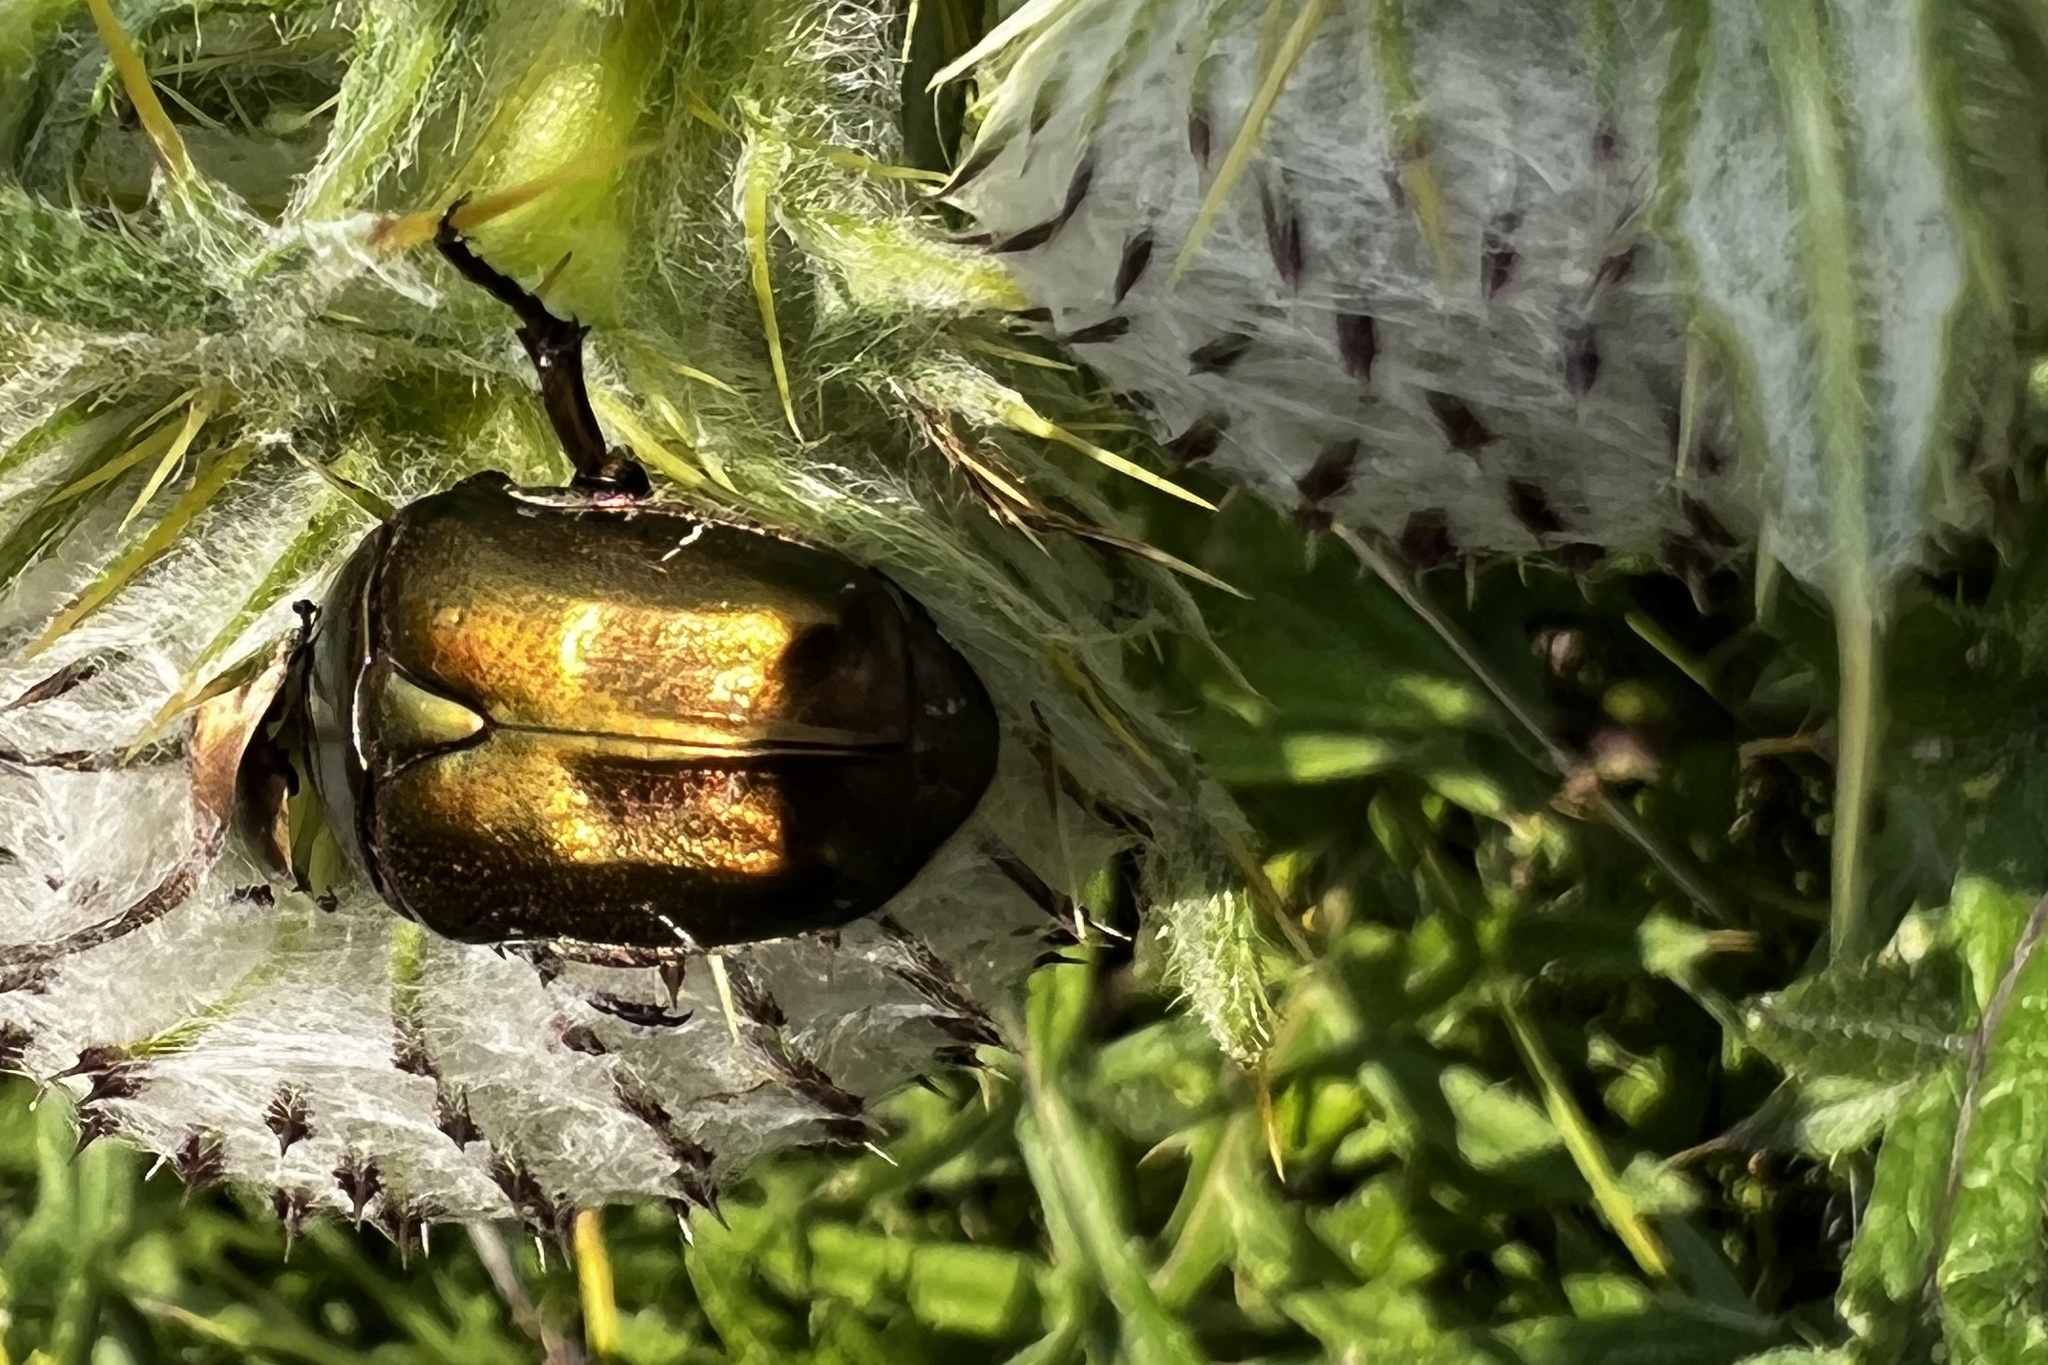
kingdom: Animalia
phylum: Arthropoda
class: Insecta
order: Coleoptera
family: Scarabaeidae
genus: Protaetia
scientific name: Protaetia cuprea
